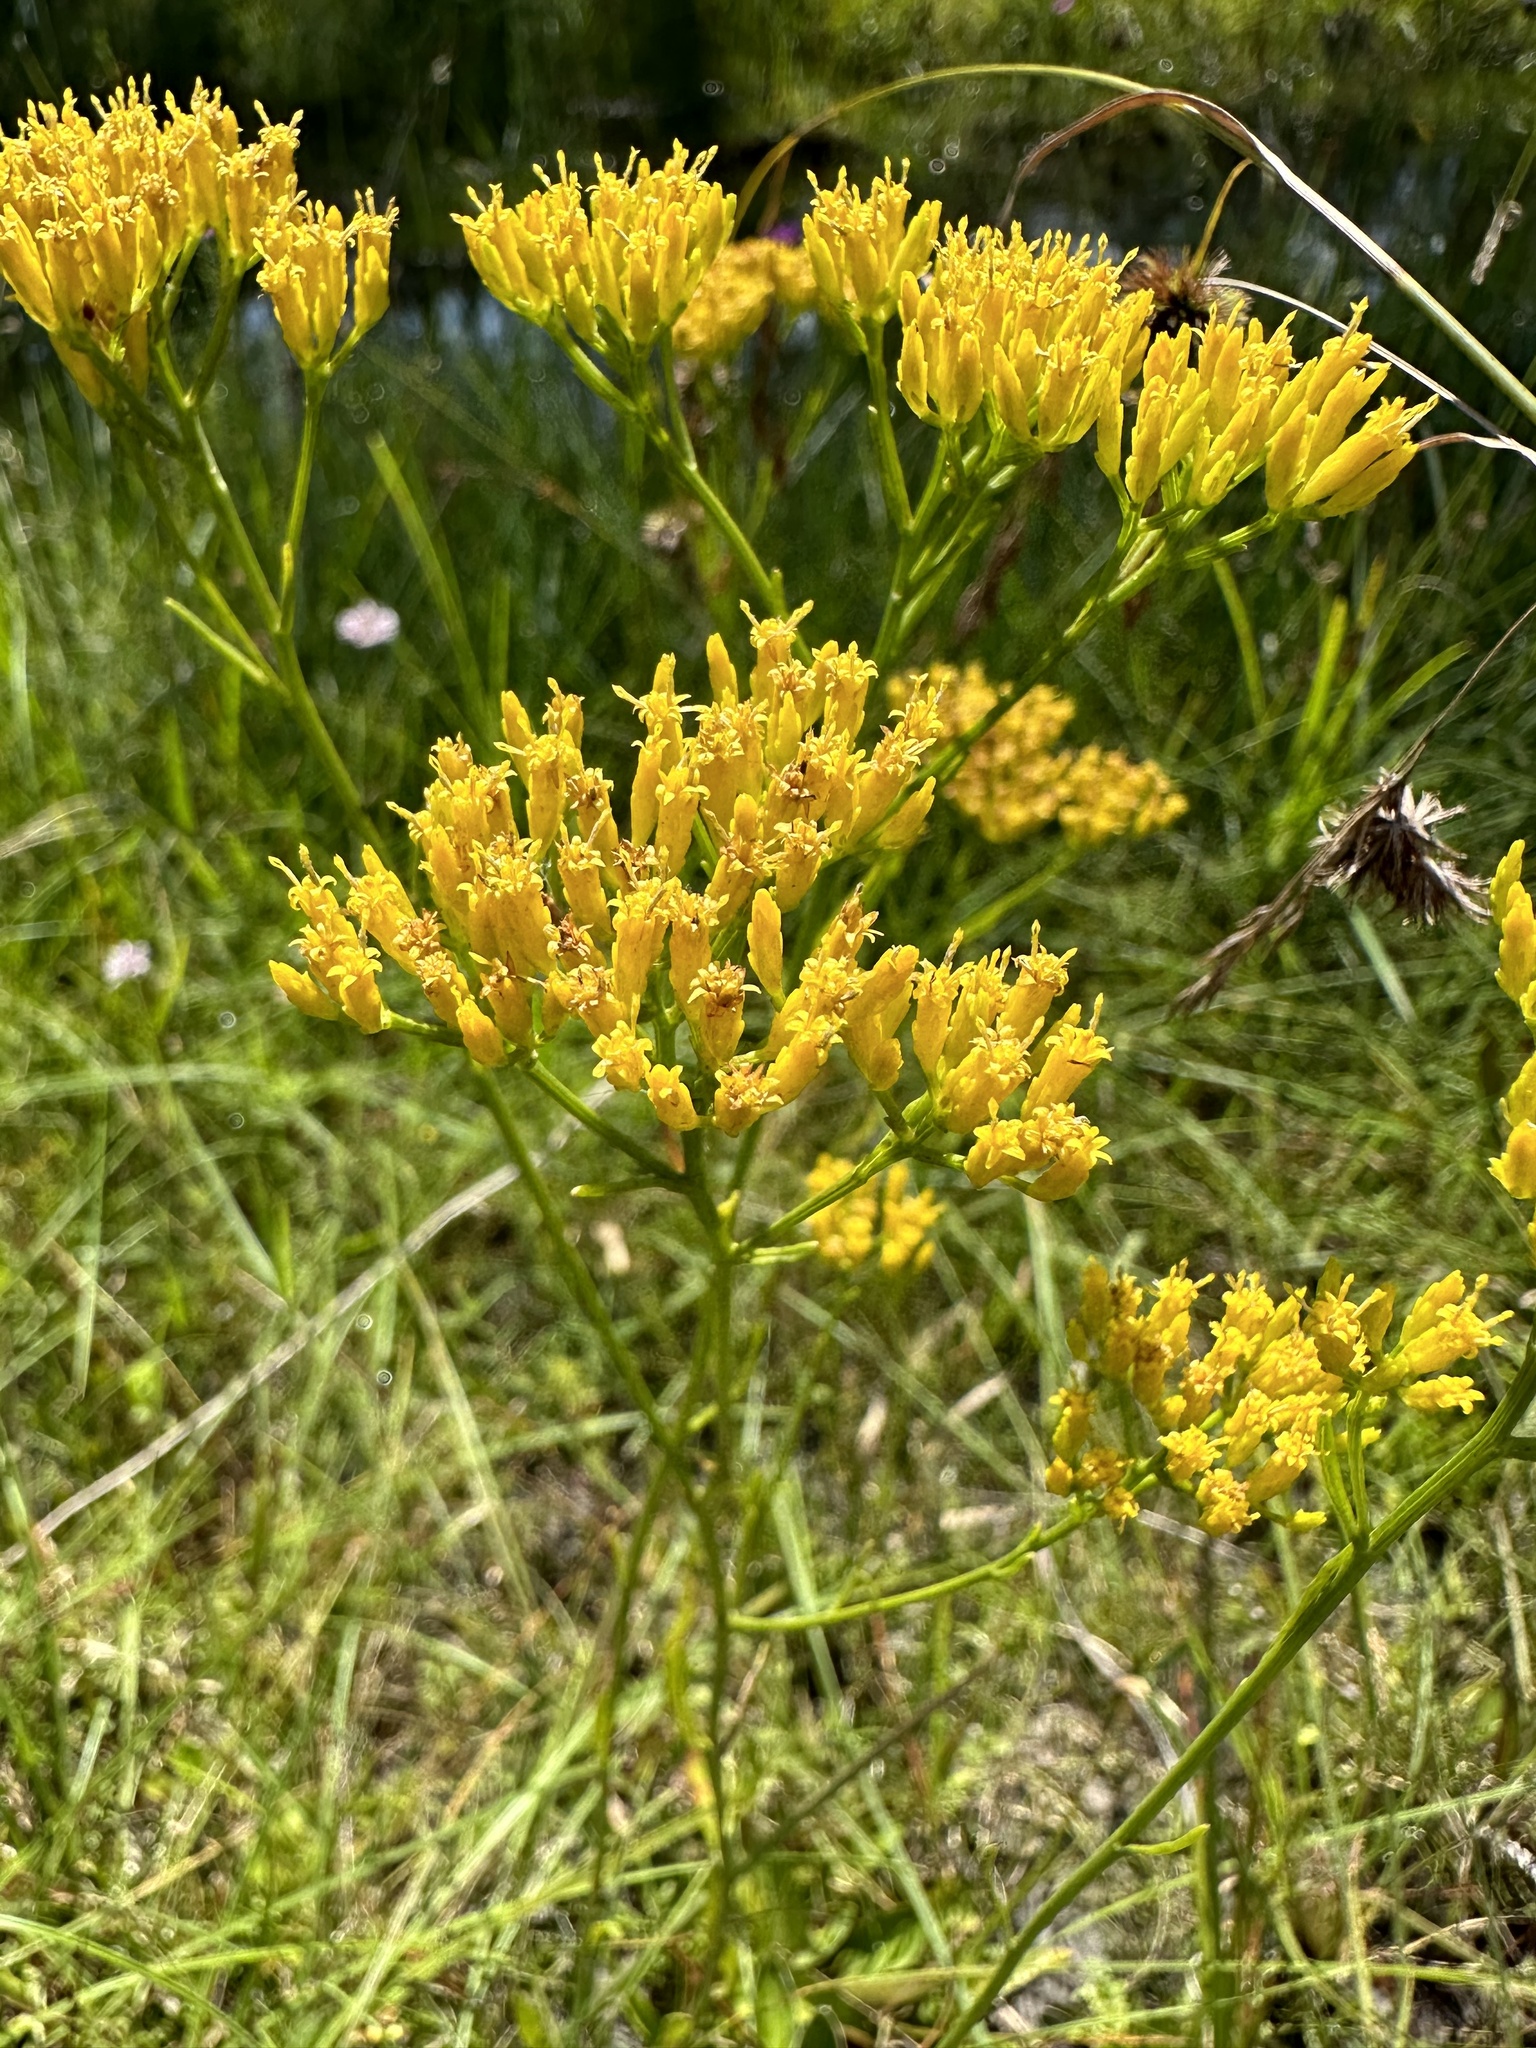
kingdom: Plantae
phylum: Tracheophyta
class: Magnoliopsida
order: Asterales
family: Asteraceae
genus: Bigelowia
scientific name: Bigelowia nudata
